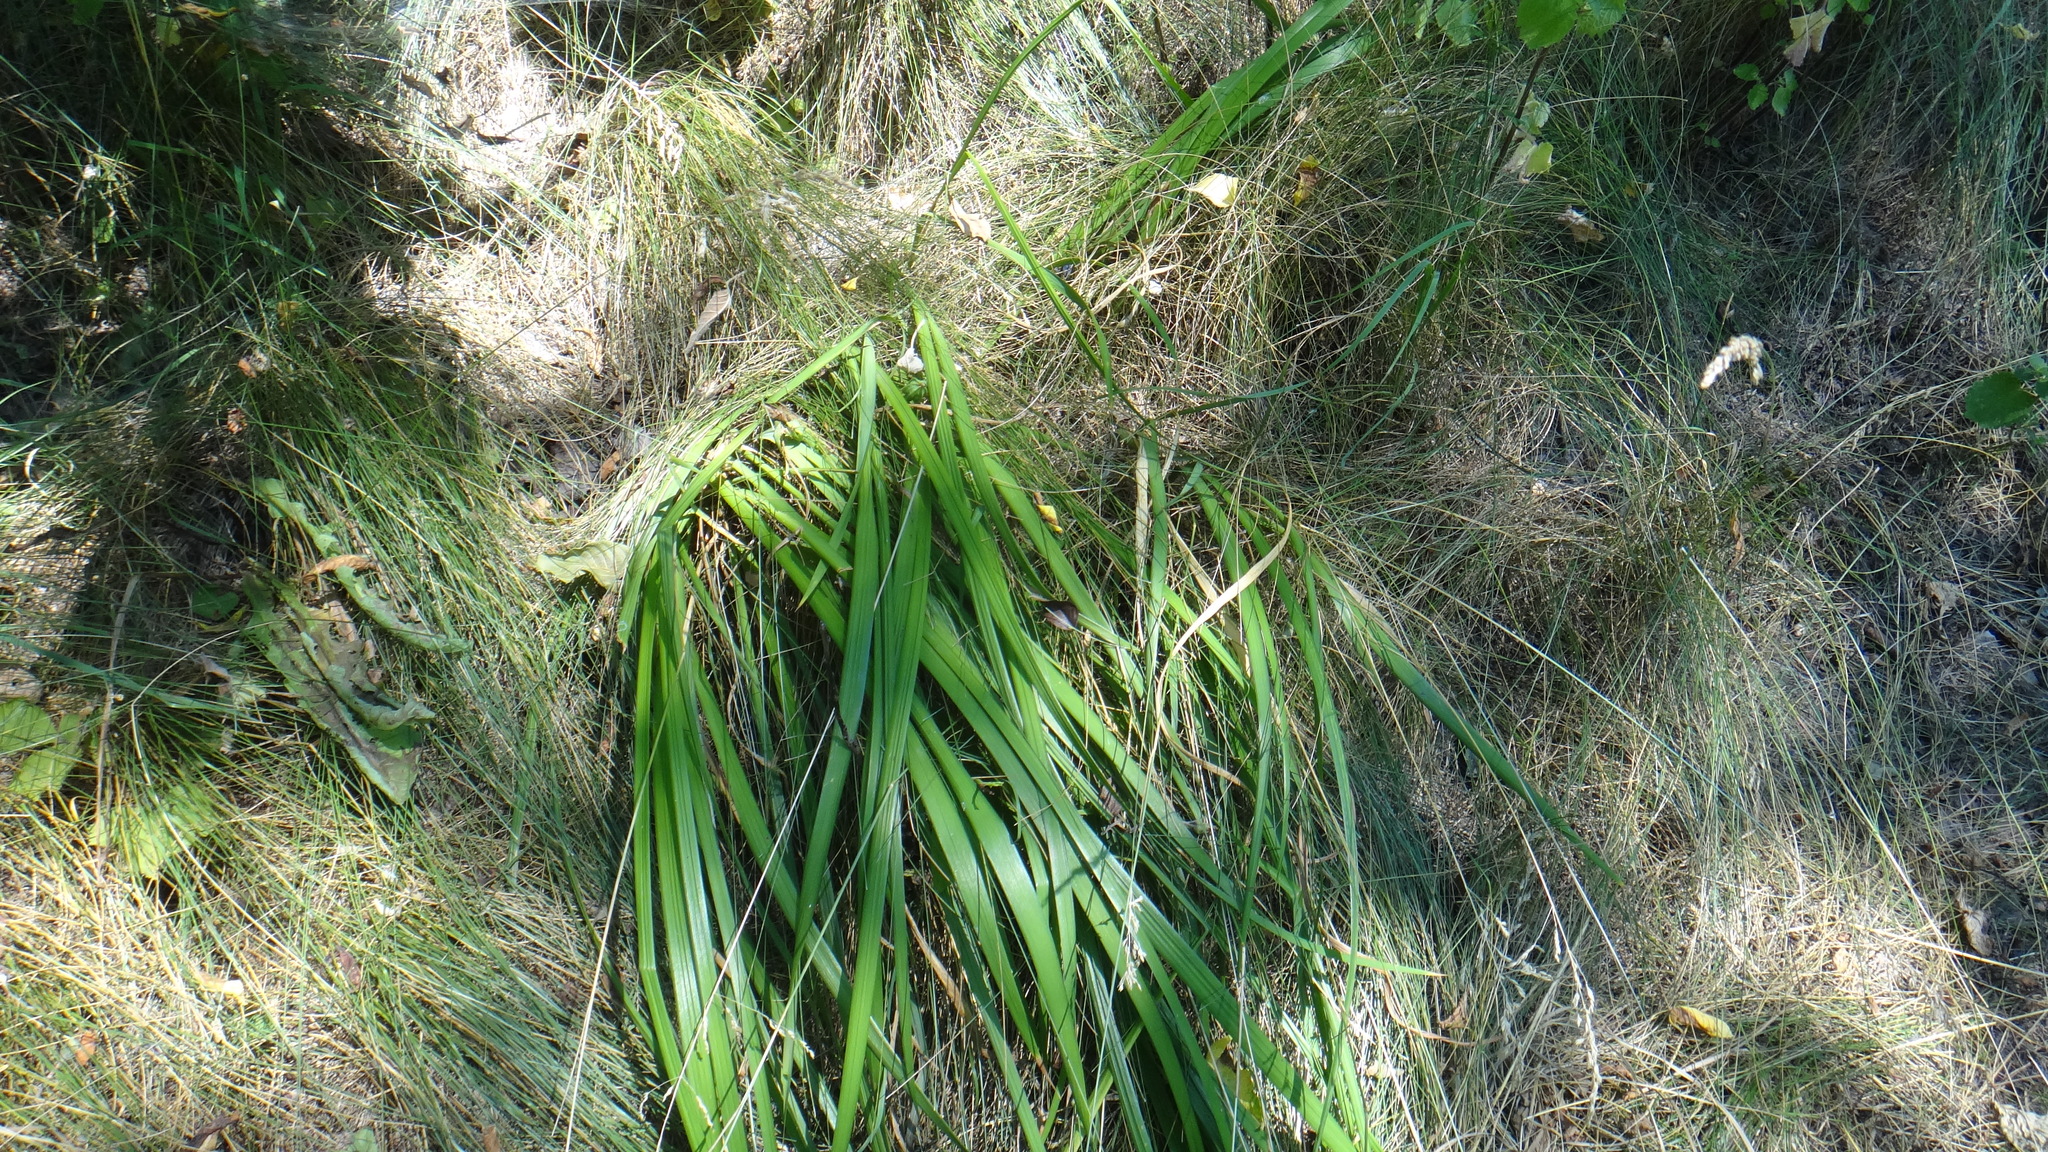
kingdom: Plantae
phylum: Tracheophyta
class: Liliopsida
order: Asparagales
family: Iridaceae
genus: Iris
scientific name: Iris graminea
